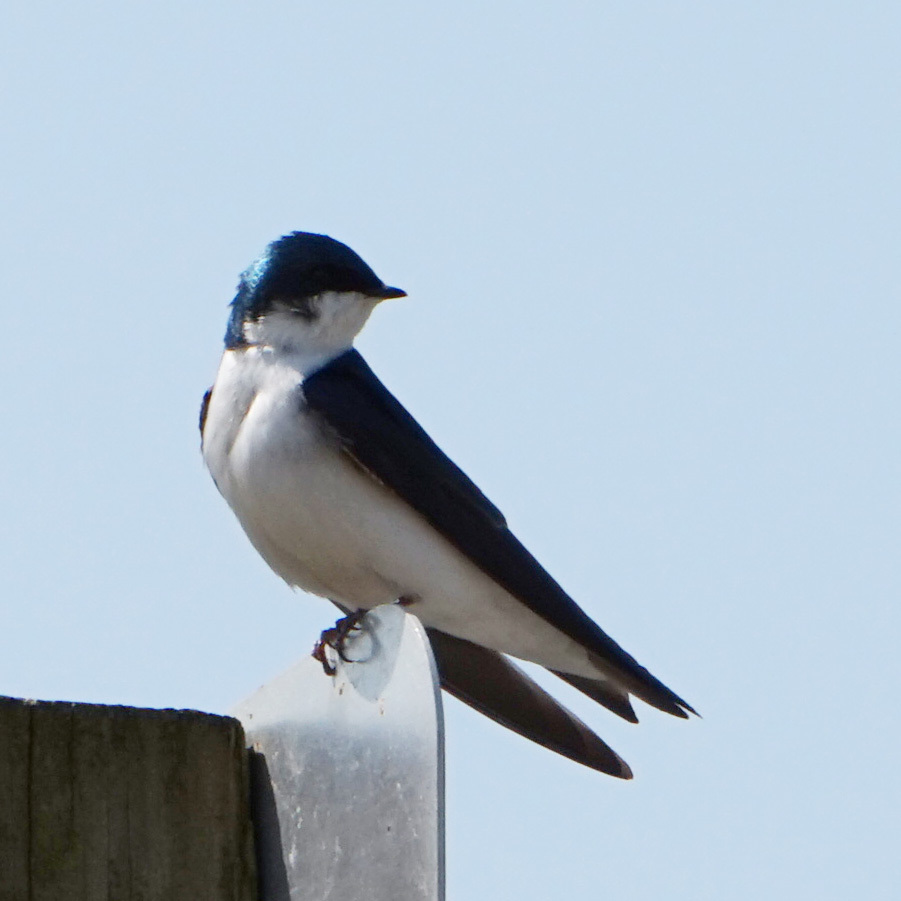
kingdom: Animalia
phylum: Chordata
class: Aves
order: Passeriformes
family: Hirundinidae
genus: Tachycineta
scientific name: Tachycineta bicolor
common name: Tree swallow
